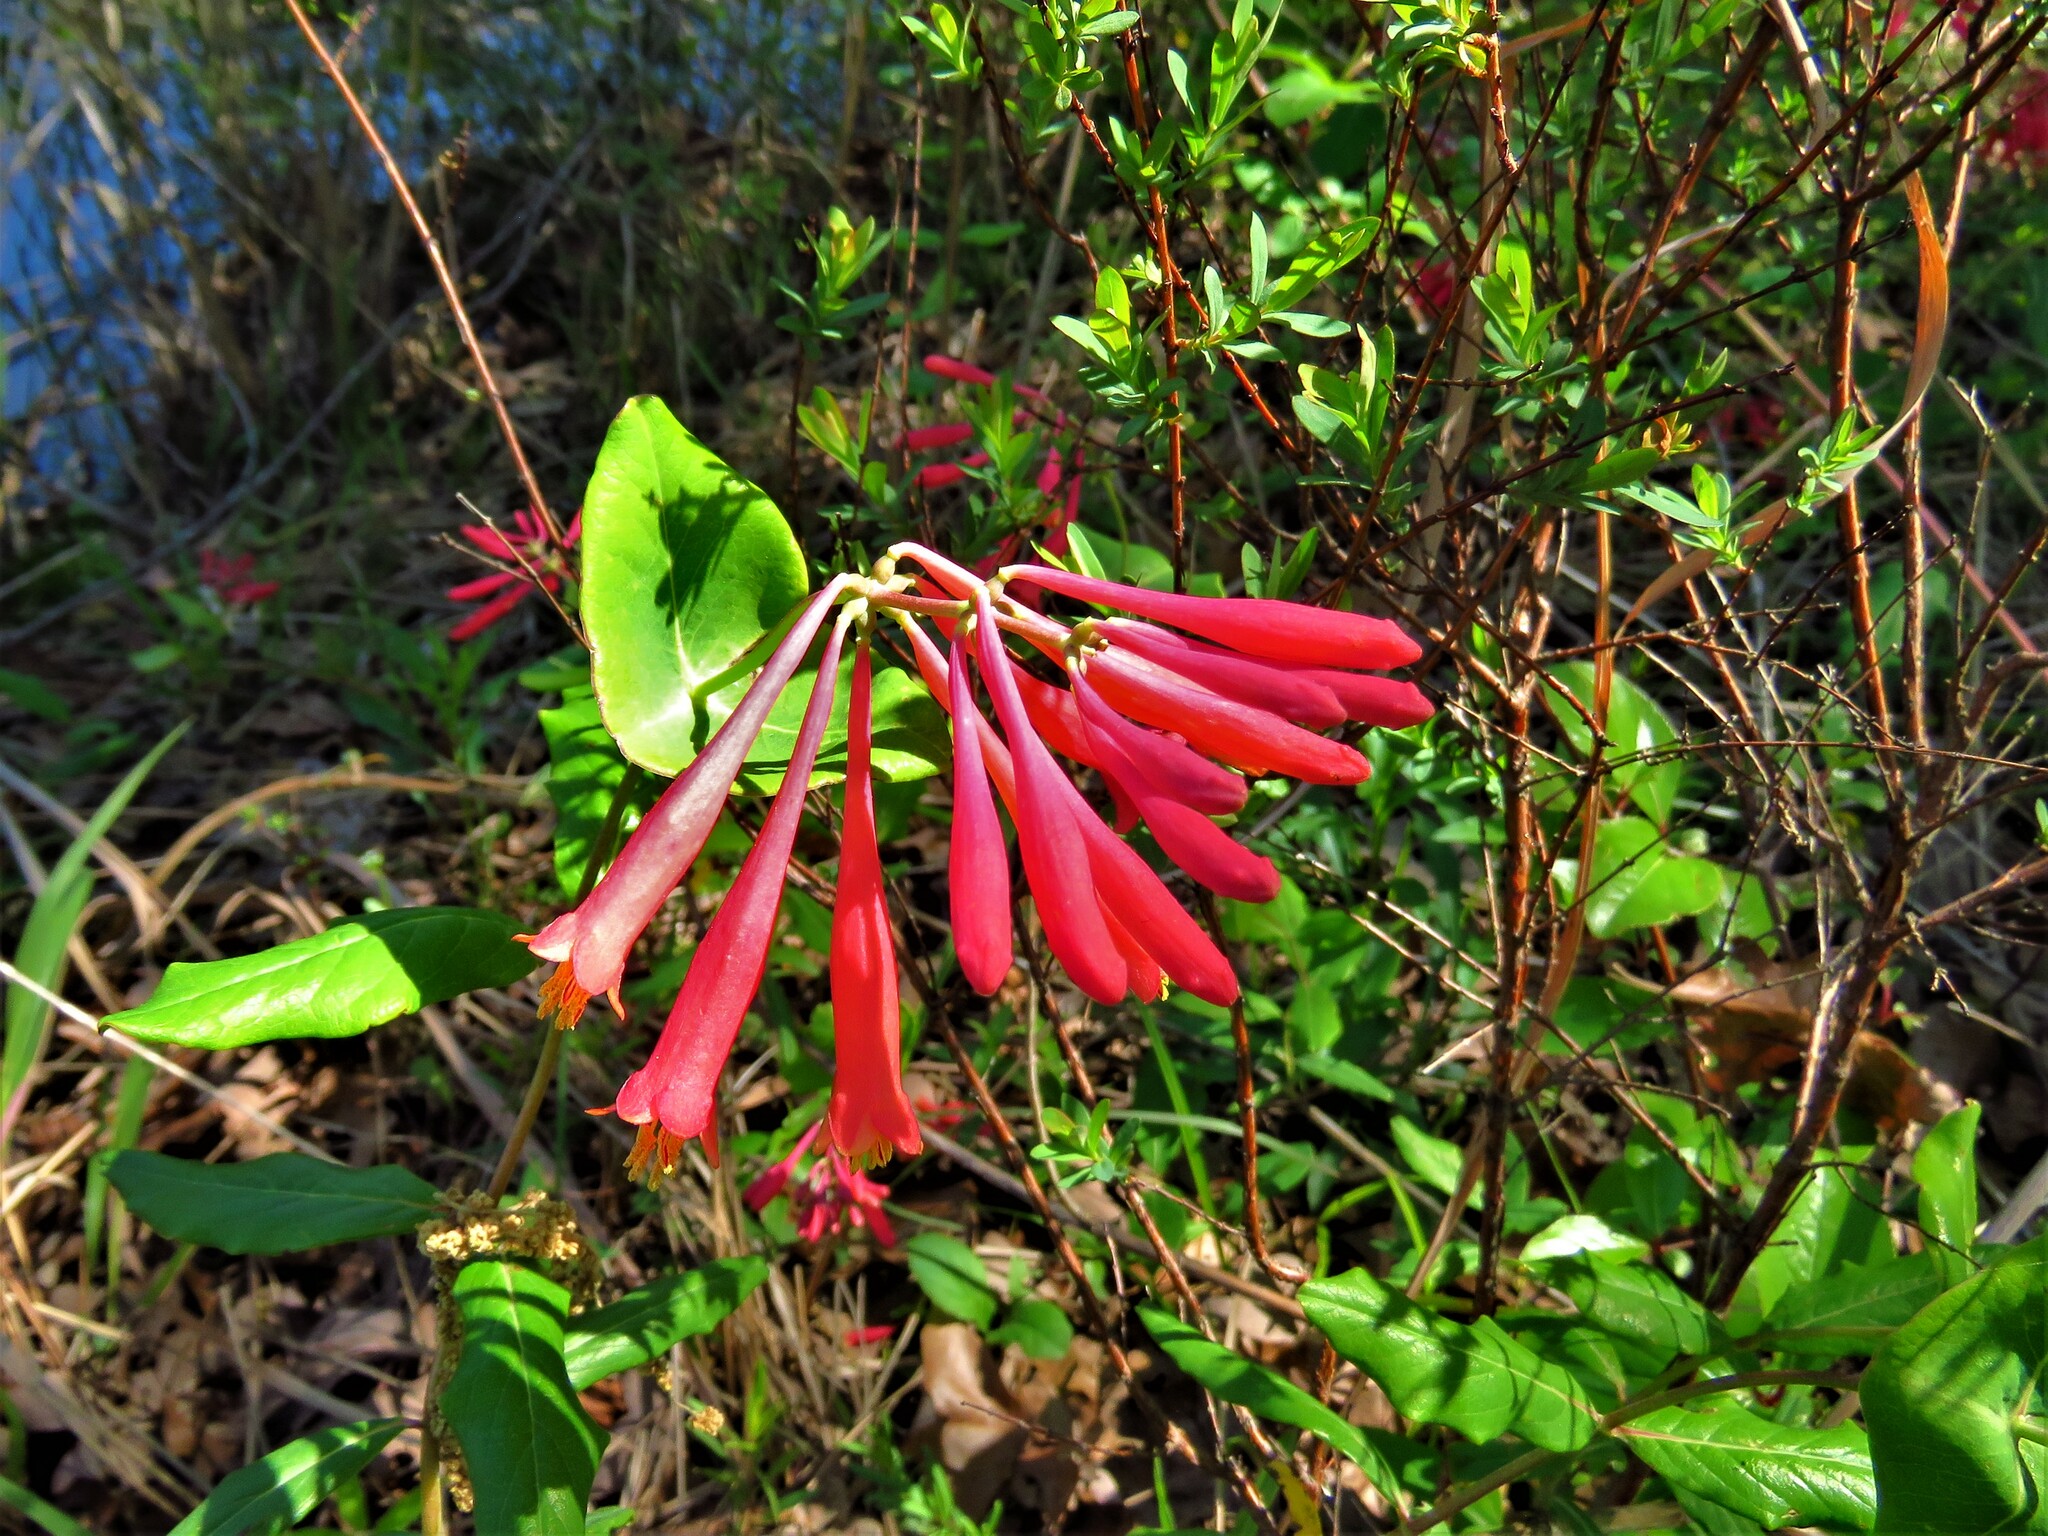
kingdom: Plantae
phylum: Tracheophyta
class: Magnoliopsida
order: Dipsacales
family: Caprifoliaceae
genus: Lonicera
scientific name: Lonicera sempervirens
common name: Coral honeysuckle
